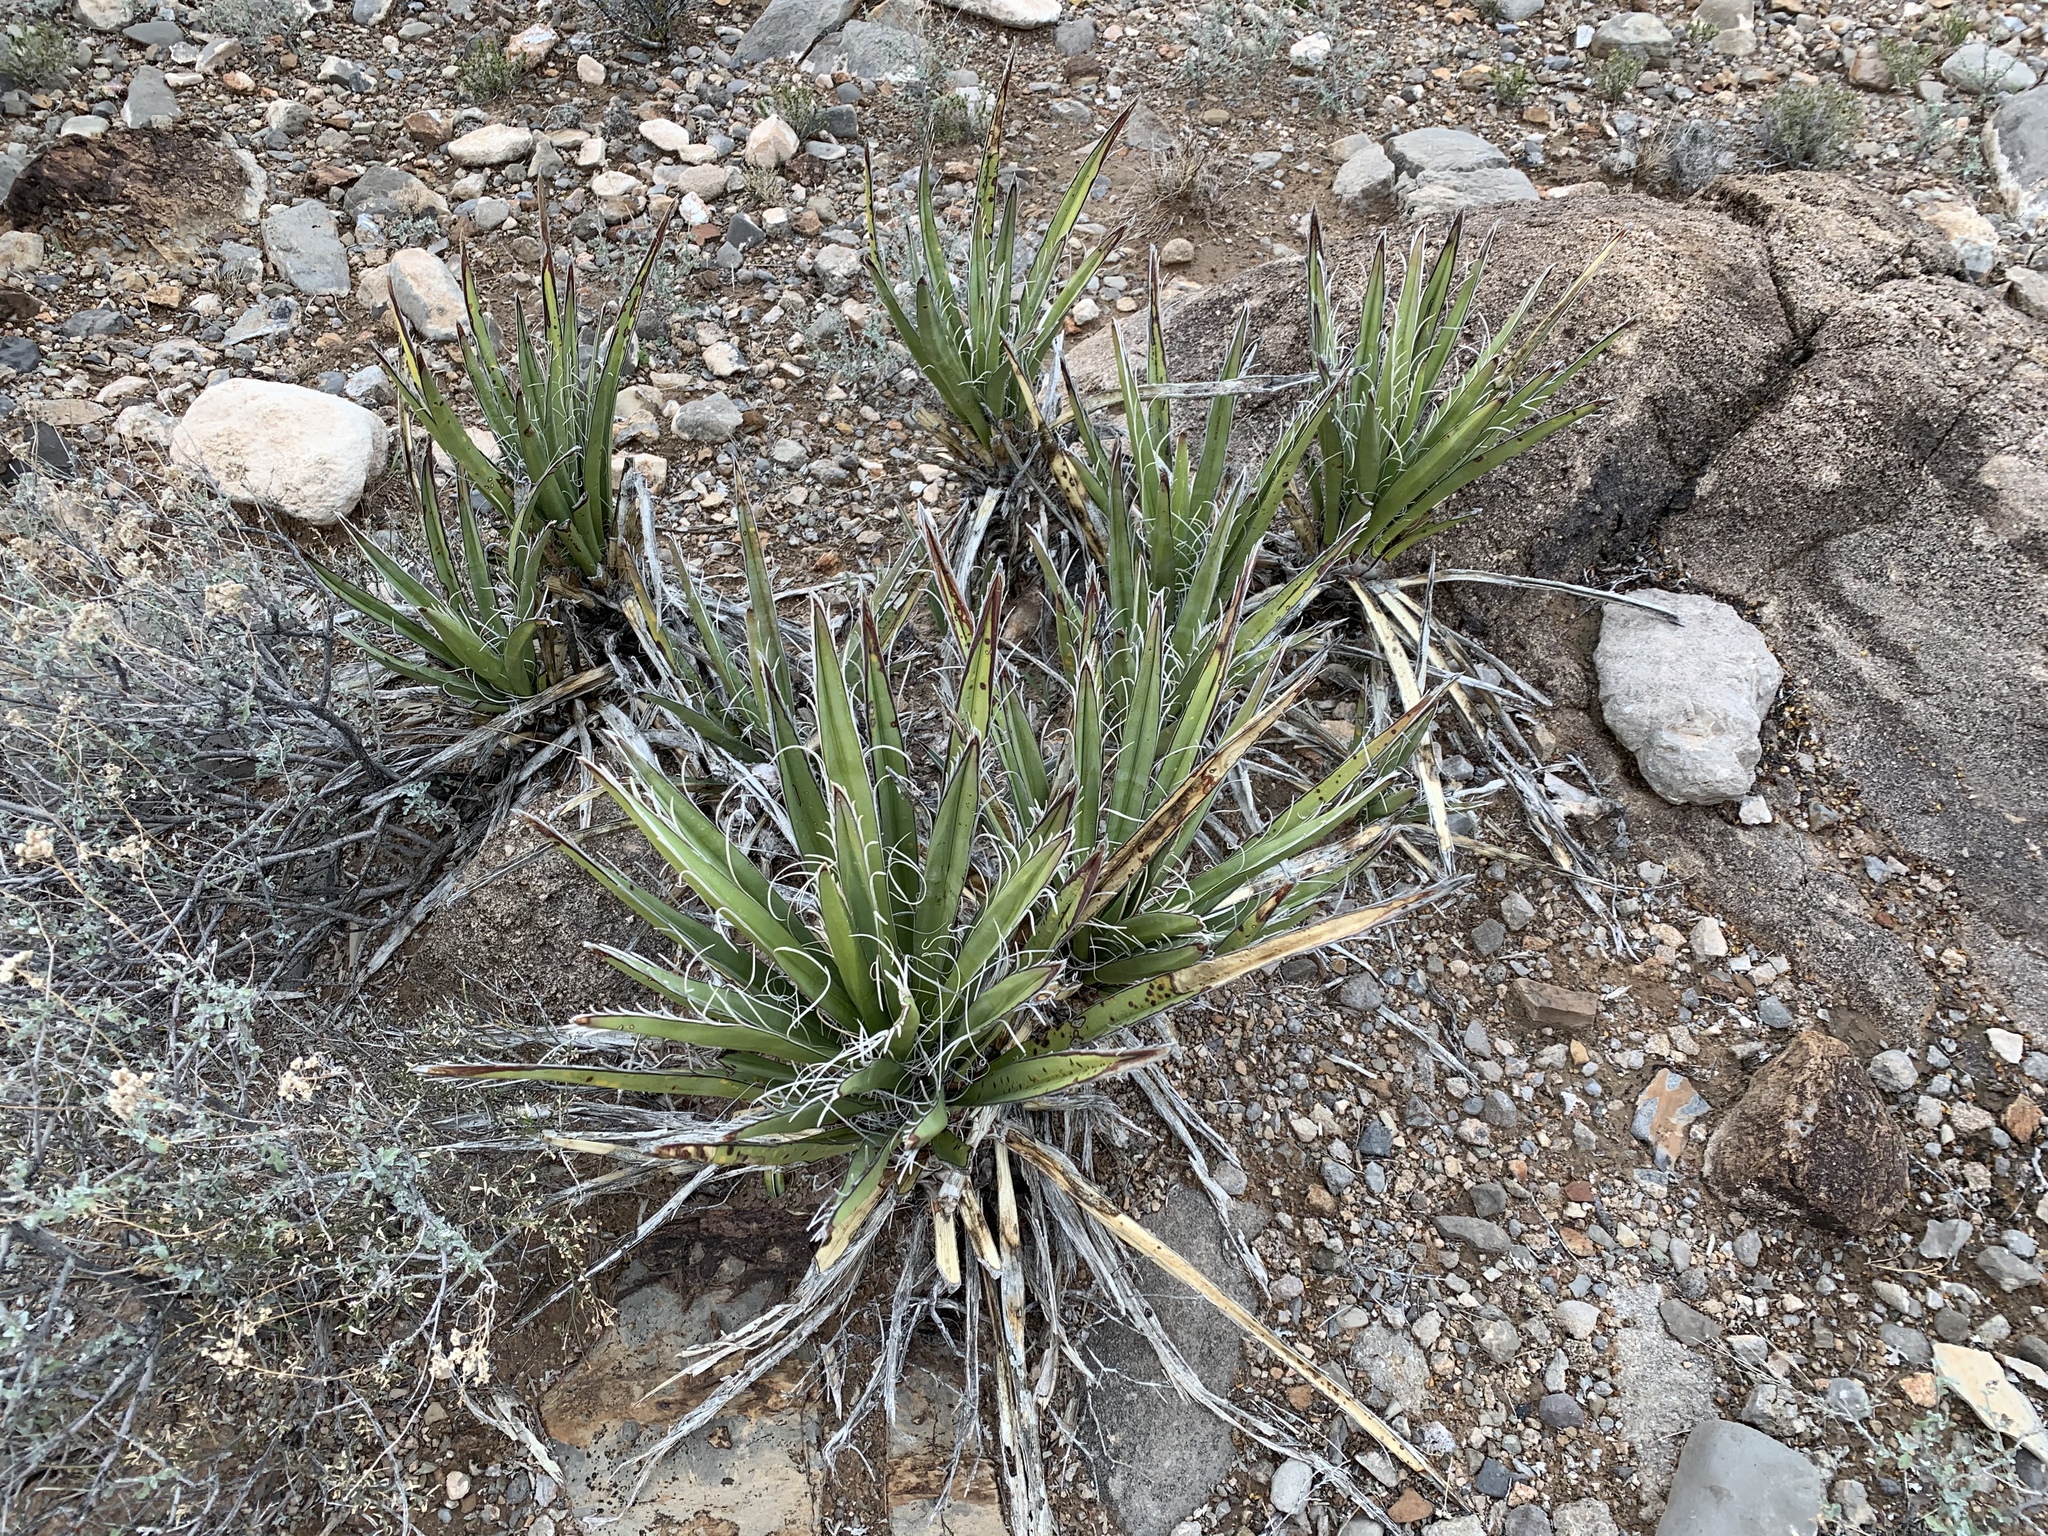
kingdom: Plantae
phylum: Tracheophyta
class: Liliopsida
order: Asparagales
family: Asparagaceae
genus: Yucca
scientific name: Yucca baccata
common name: Banana yucca
